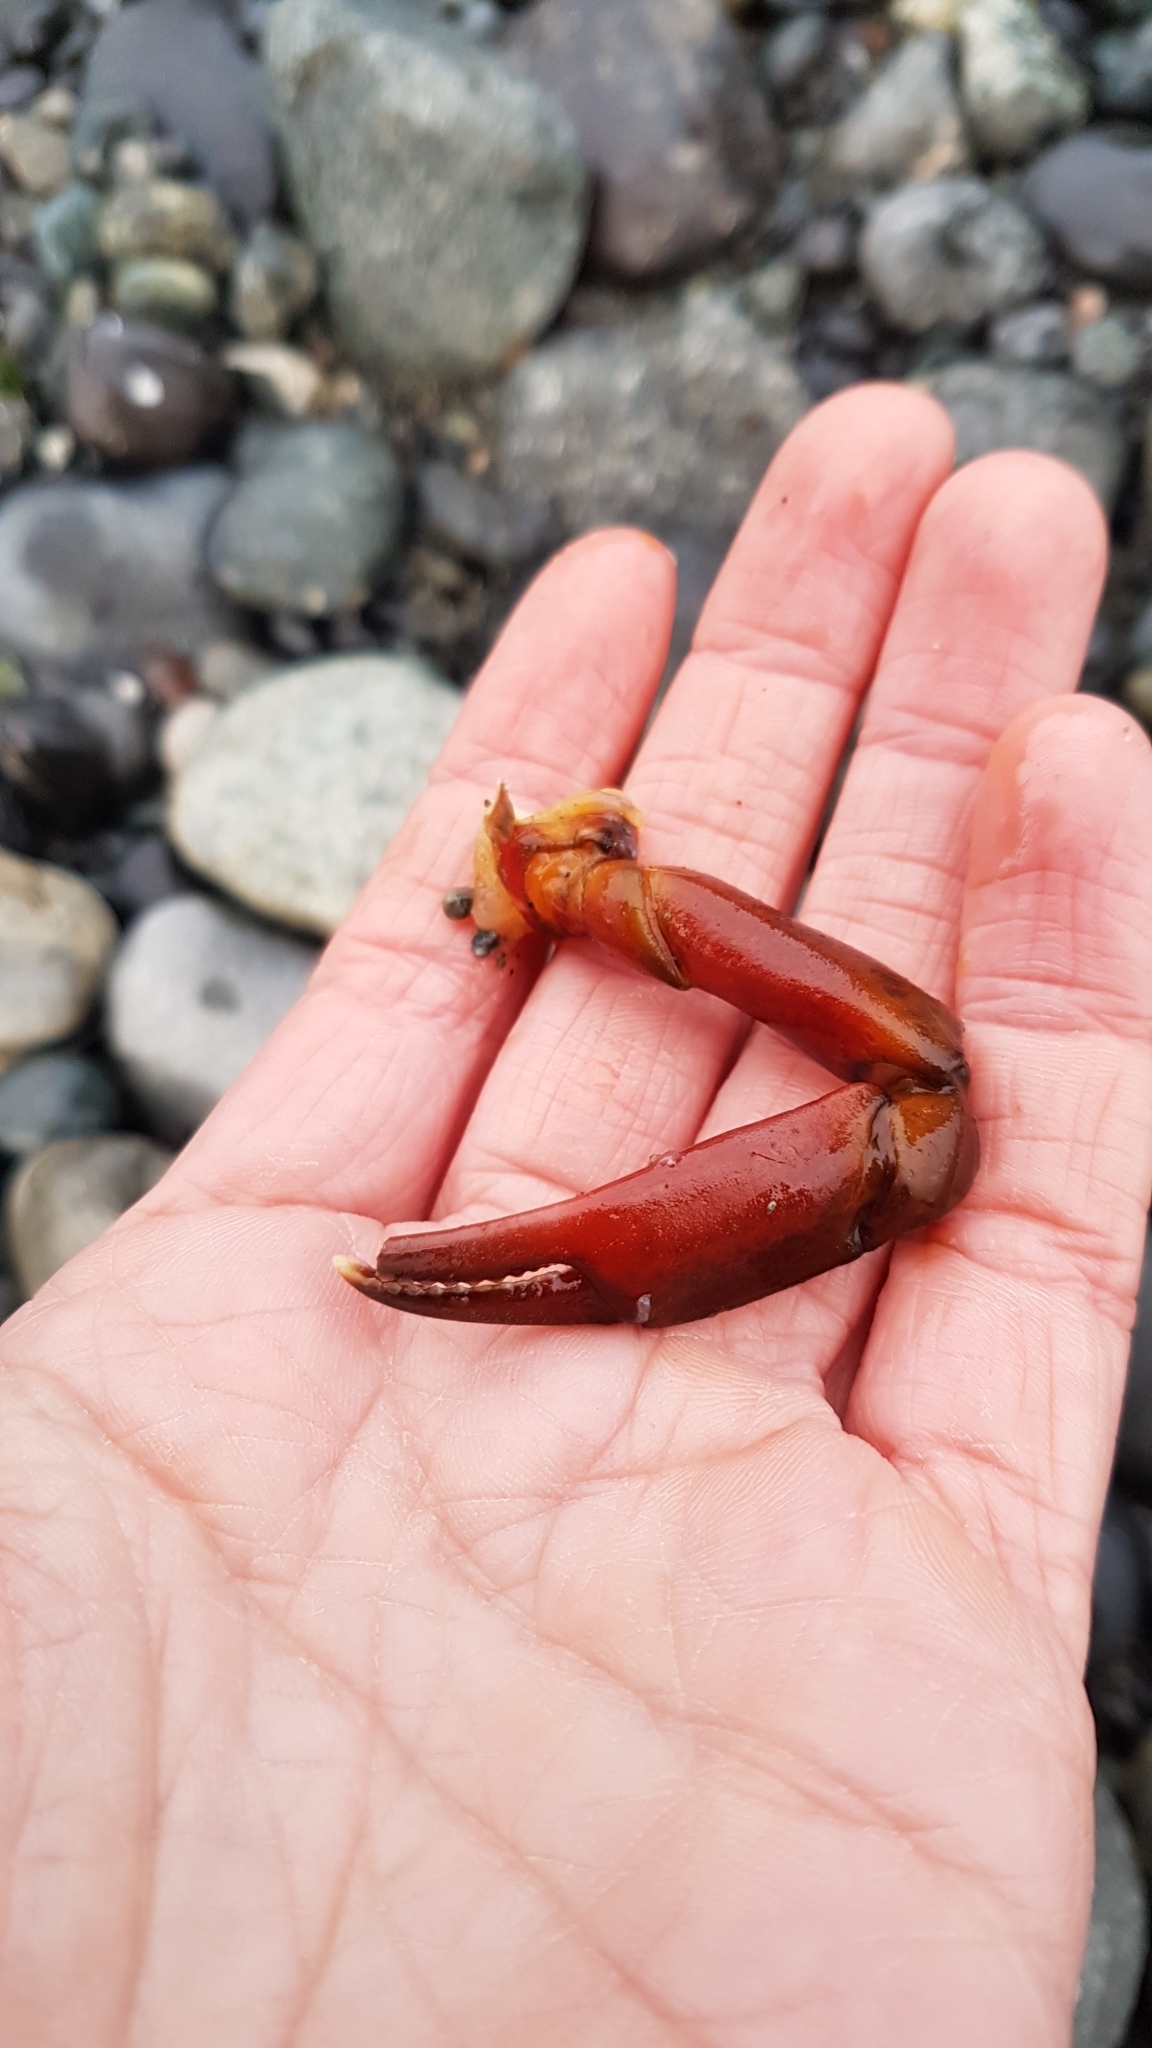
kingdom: Animalia
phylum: Arthropoda
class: Malacostraca
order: Decapoda
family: Epialtidae
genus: Pugettia
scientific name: Pugettia producta
